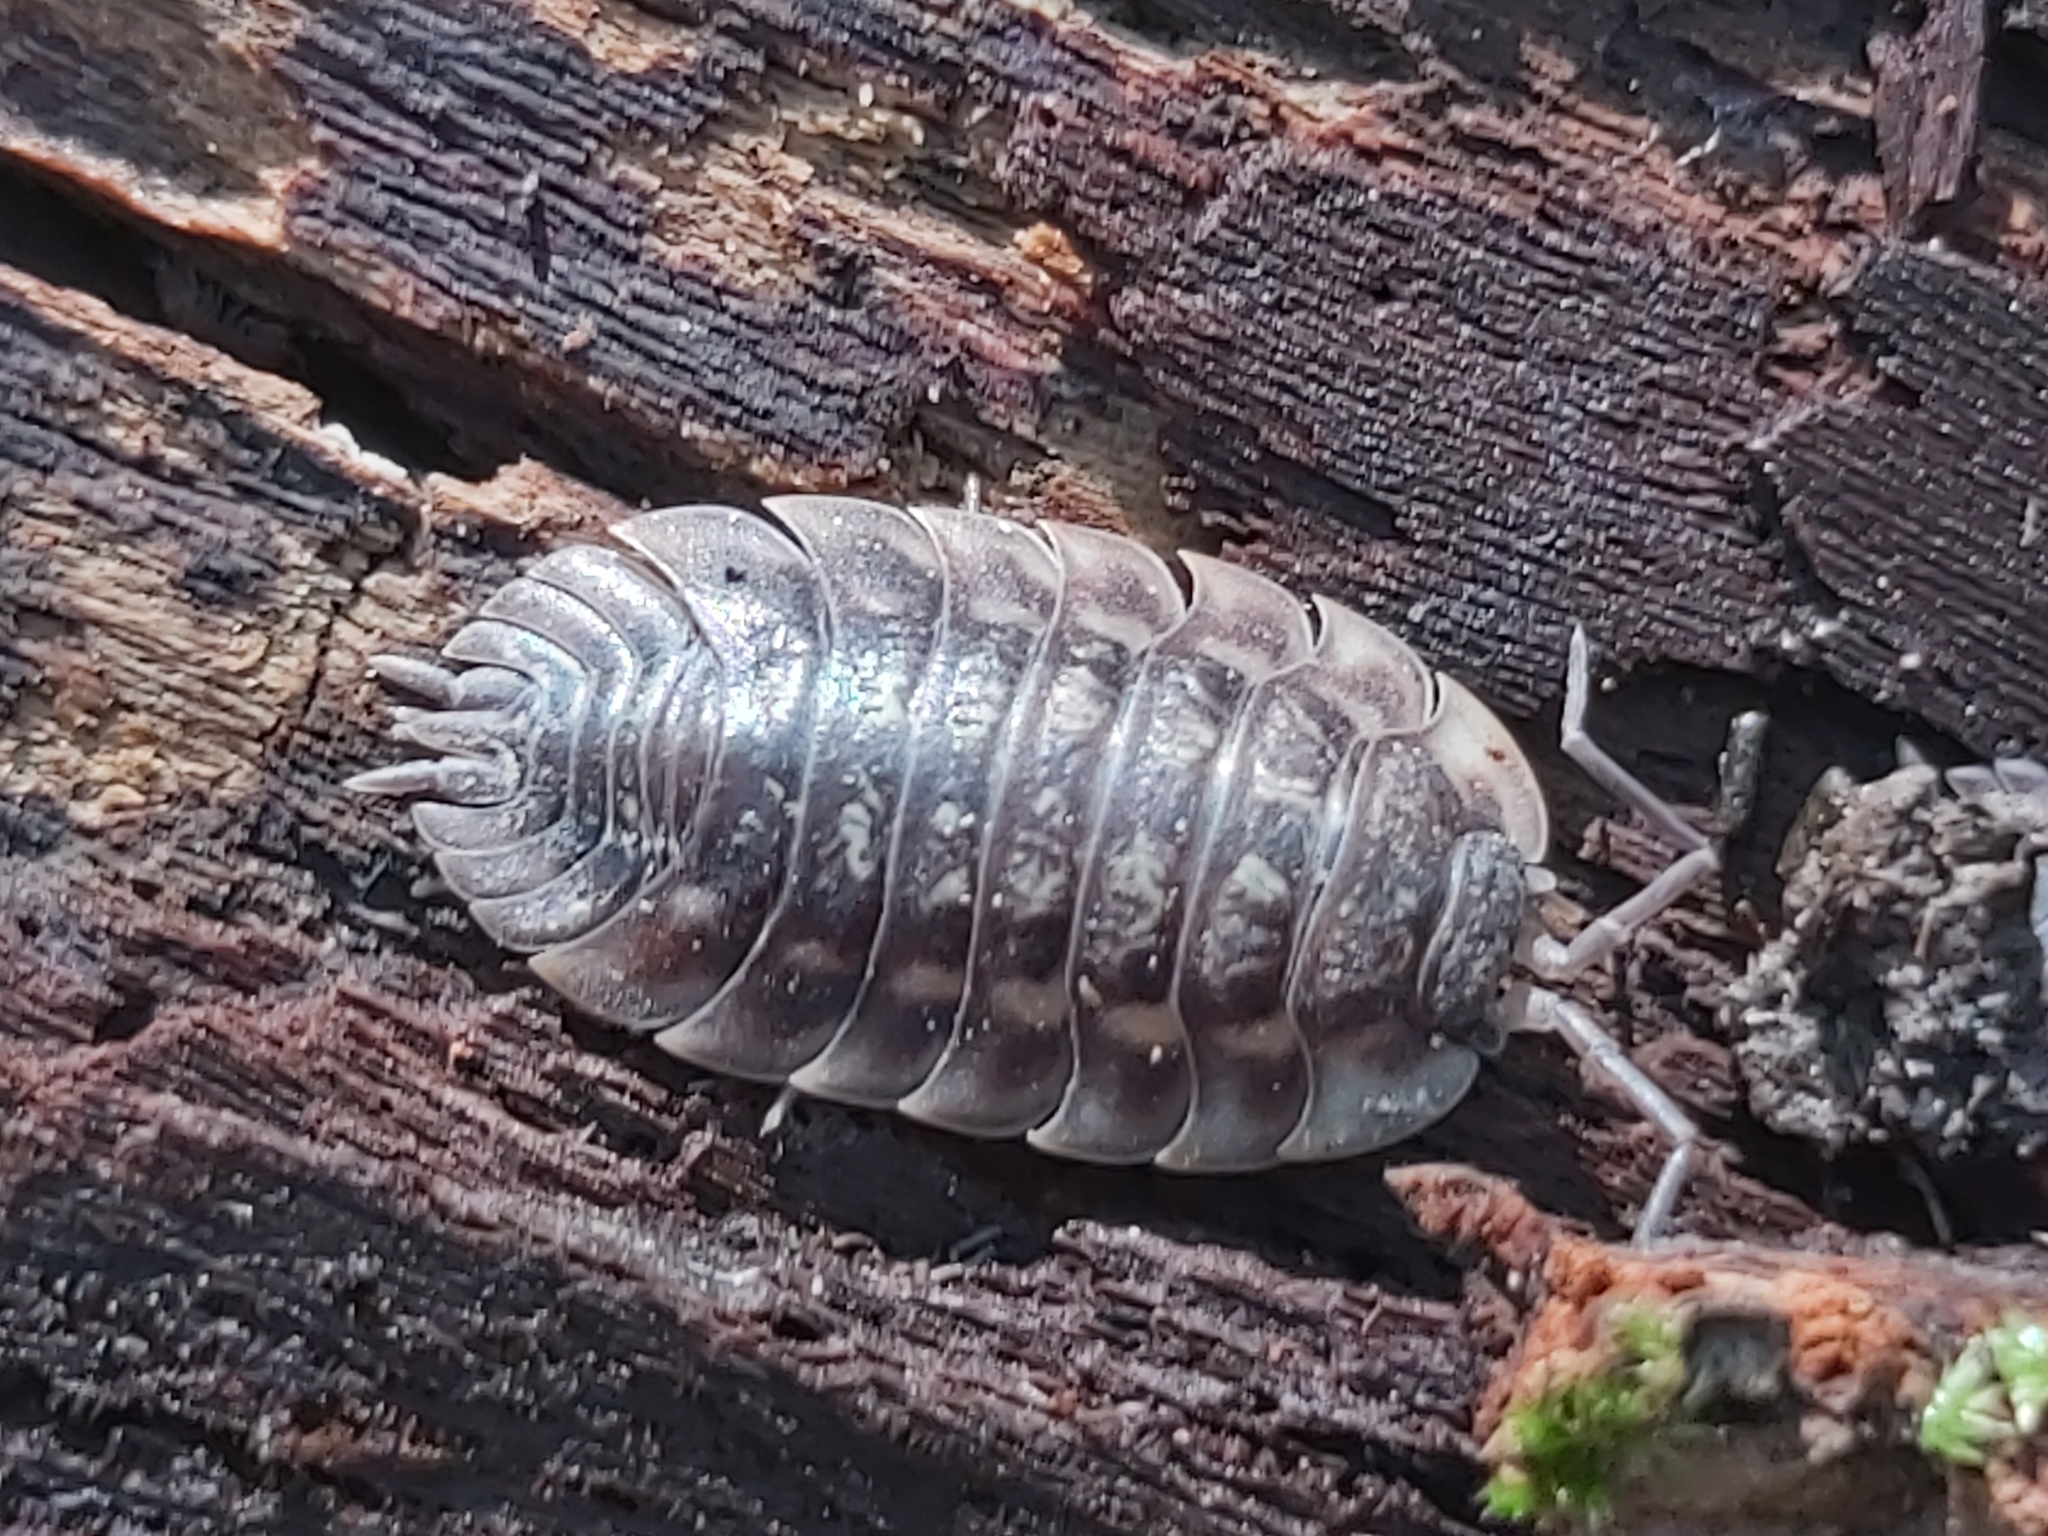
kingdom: Animalia
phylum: Arthropoda
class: Malacostraca
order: Isopoda
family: Oniscidae
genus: Oniscus
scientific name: Oniscus asellus
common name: Common shiny woodlouse
